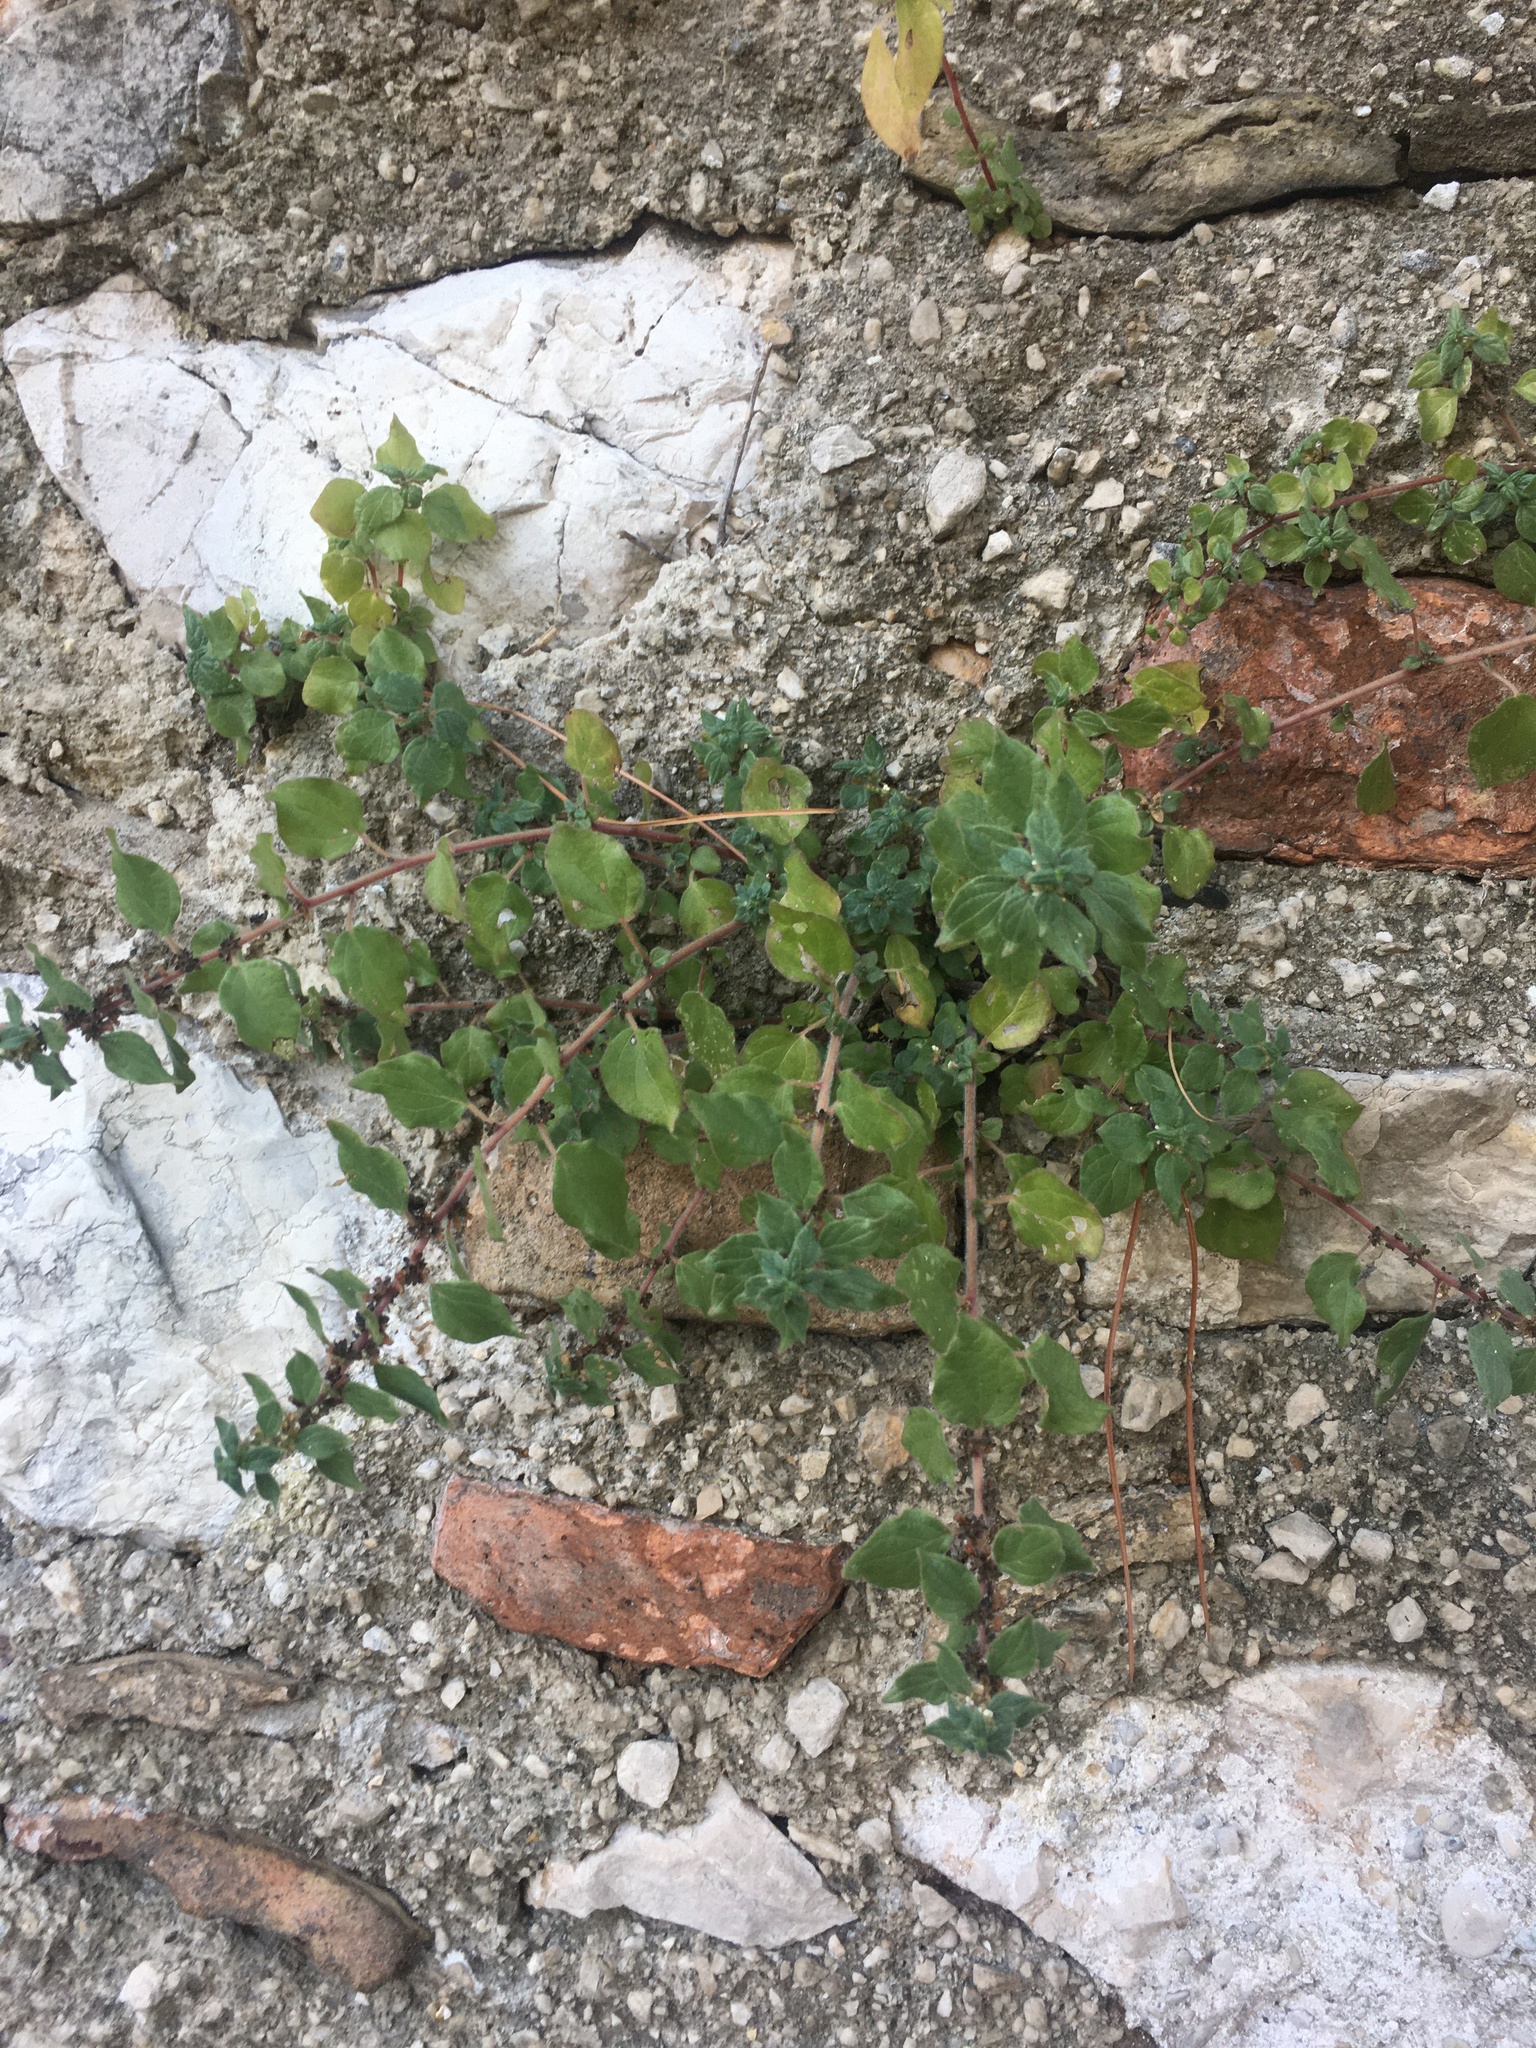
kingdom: Plantae
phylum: Tracheophyta
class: Magnoliopsida
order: Rosales
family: Urticaceae
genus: Parietaria
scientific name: Parietaria judaica
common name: Pellitory-of-the-wall
